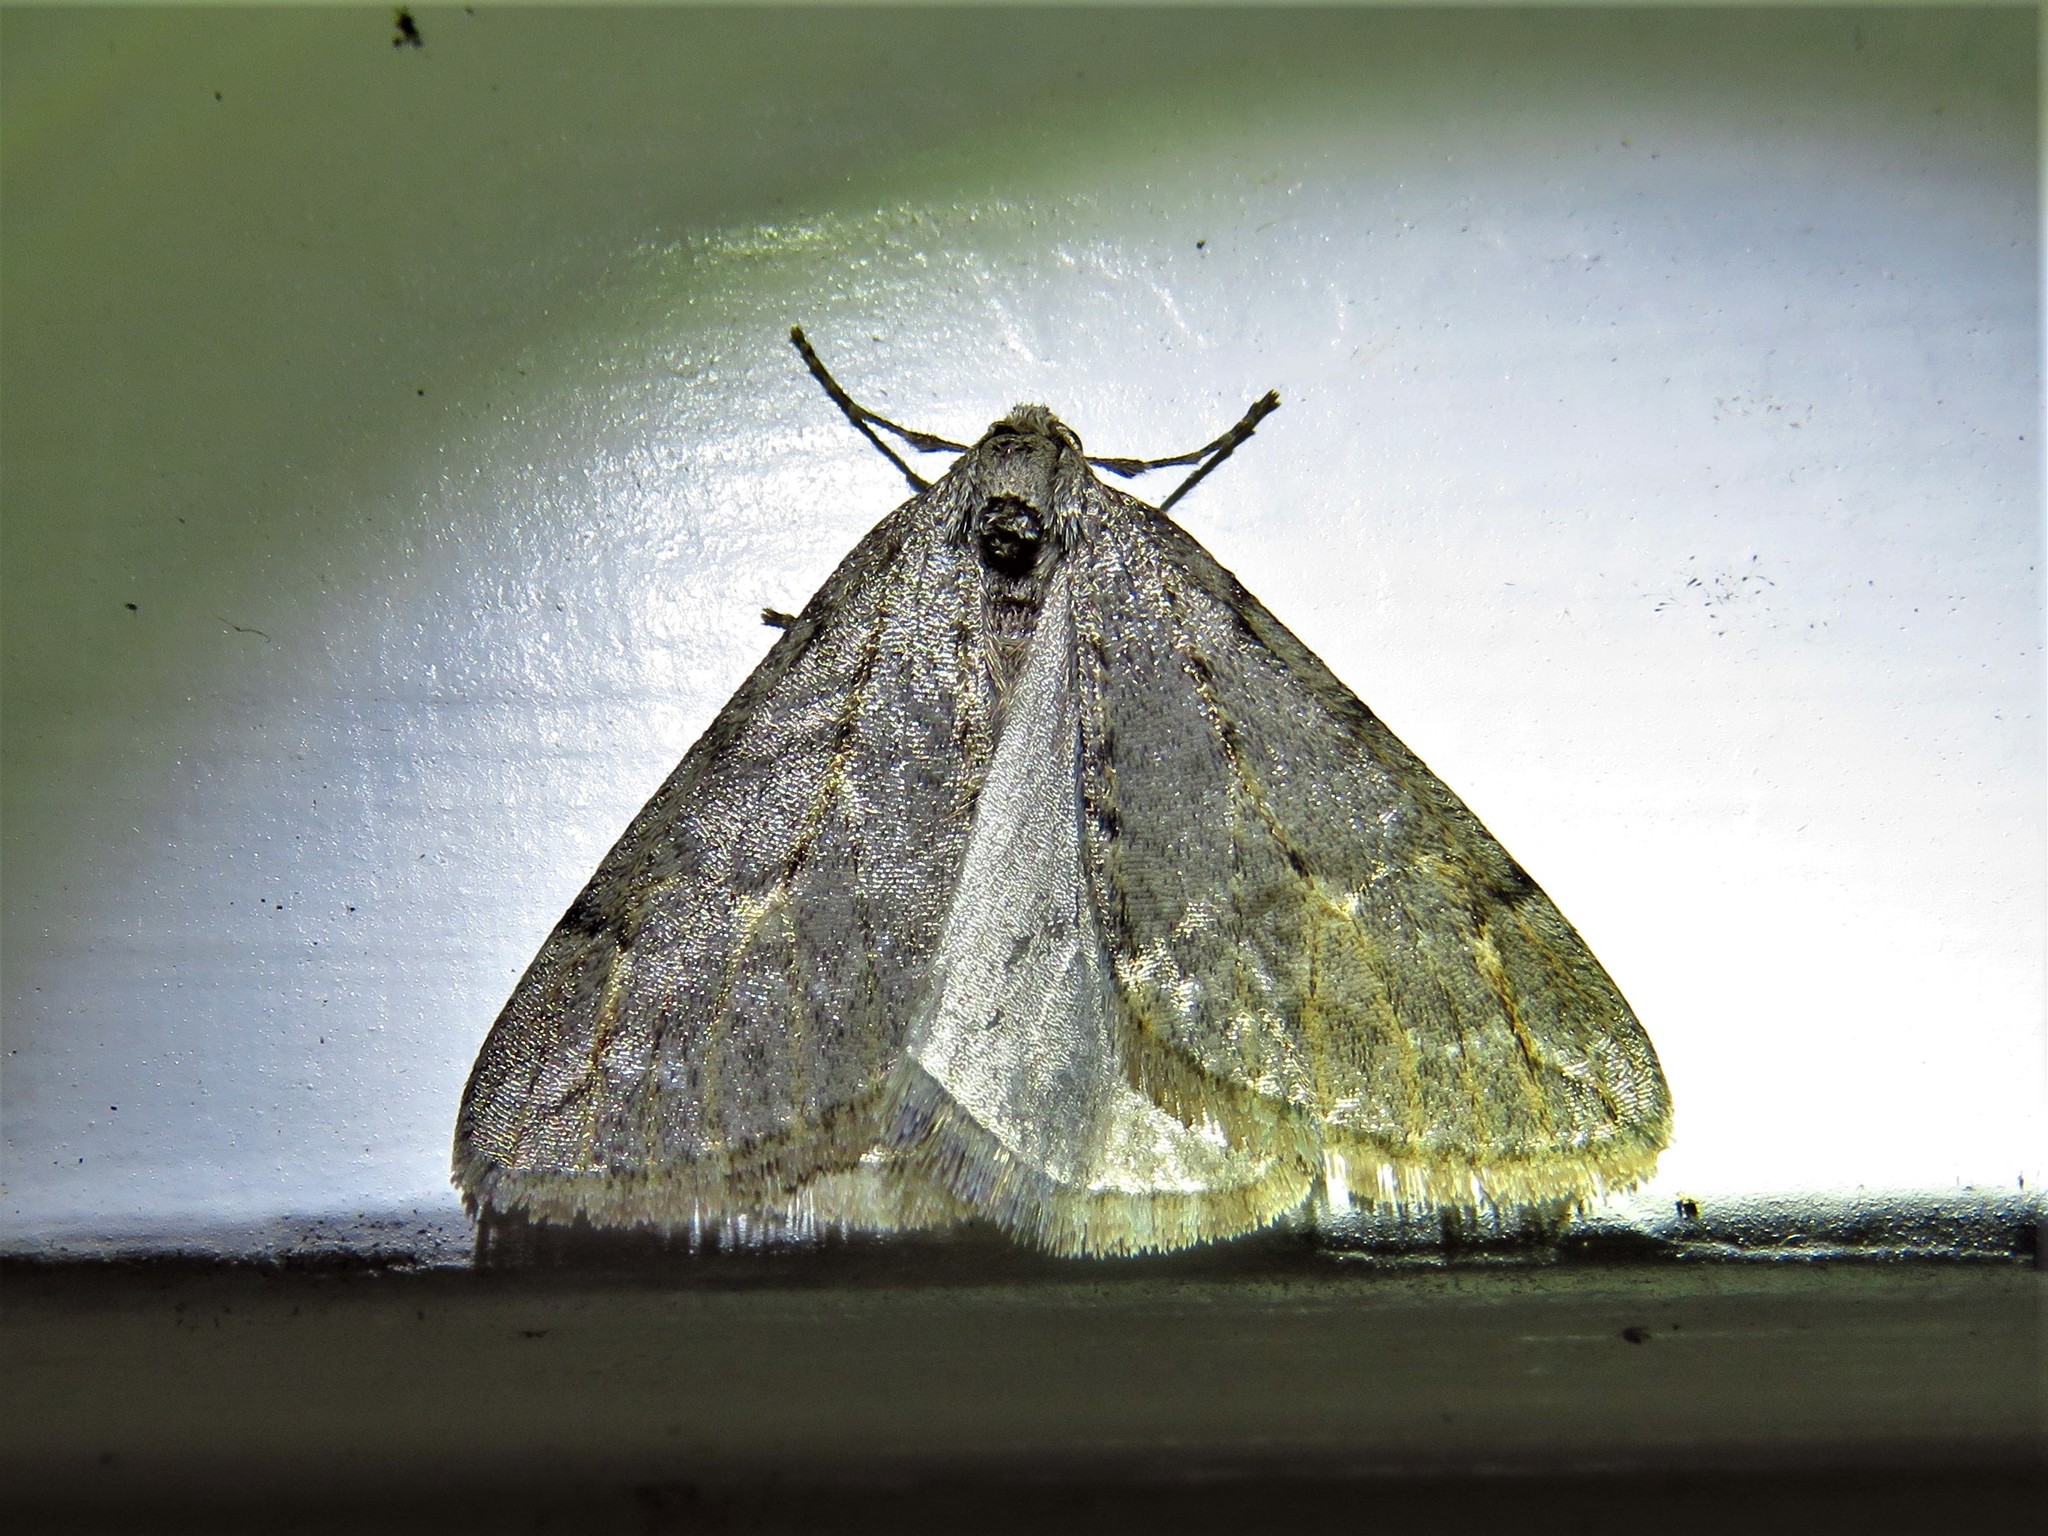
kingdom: Animalia
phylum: Arthropoda
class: Insecta
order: Lepidoptera
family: Geometridae
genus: Paleacrita
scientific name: Paleacrita vernata
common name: Spring cankerworm
